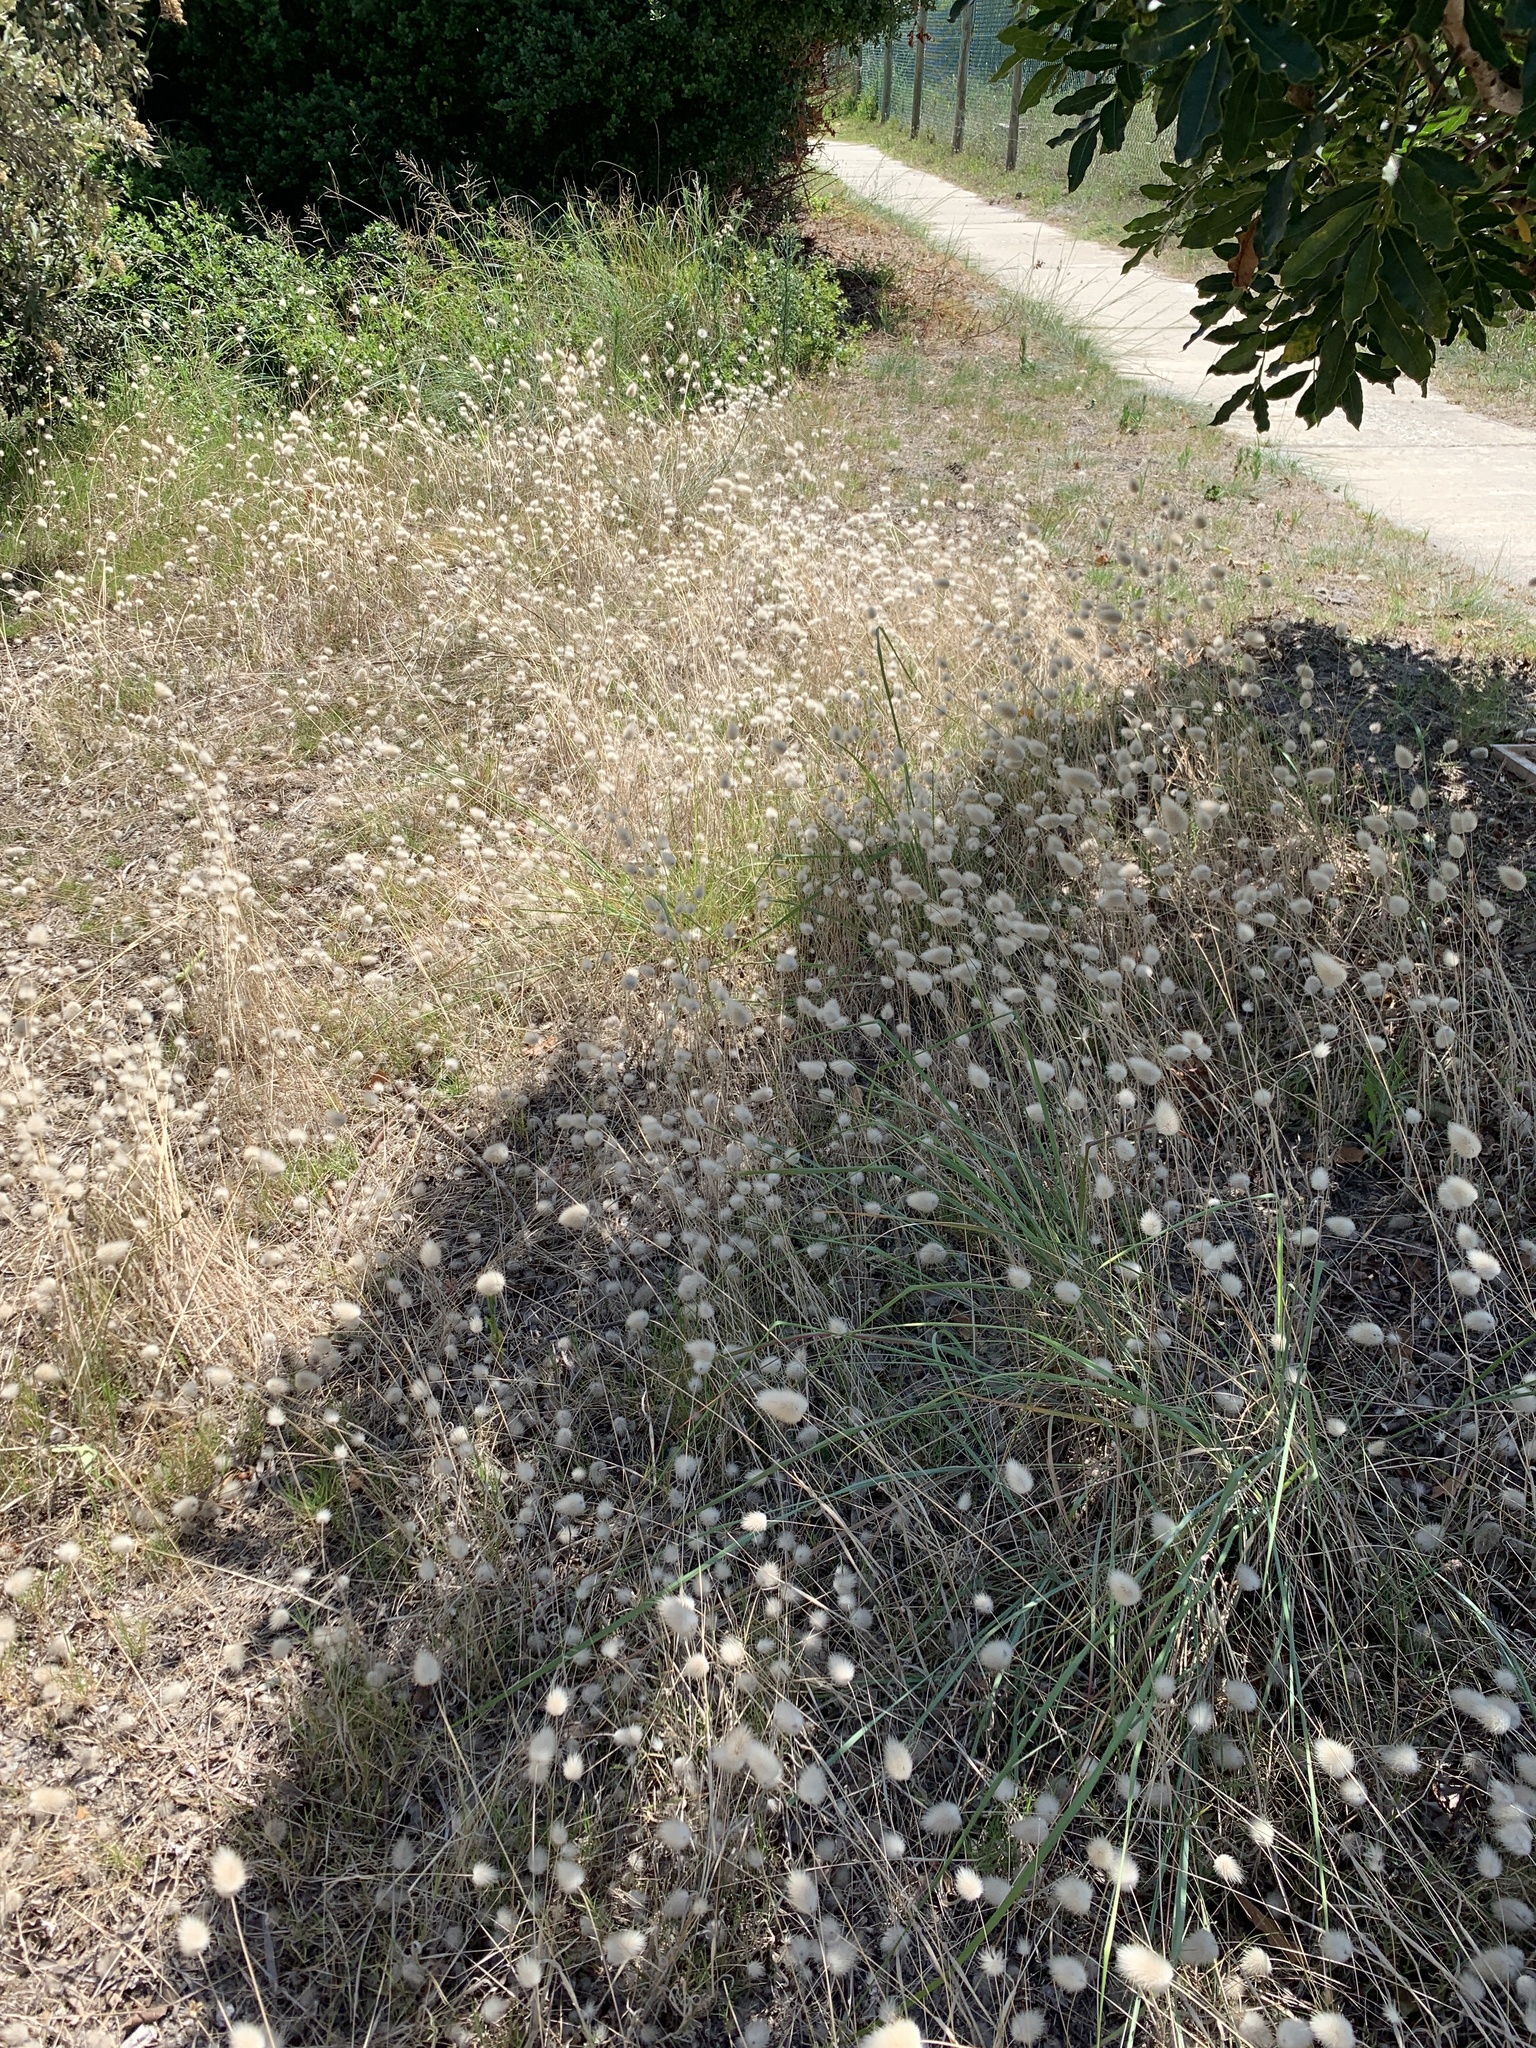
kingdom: Plantae
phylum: Tracheophyta
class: Liliopsida
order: Poales
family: Poaceae
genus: Lagurus
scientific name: Lagurus ovatus
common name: Hare's-tail
